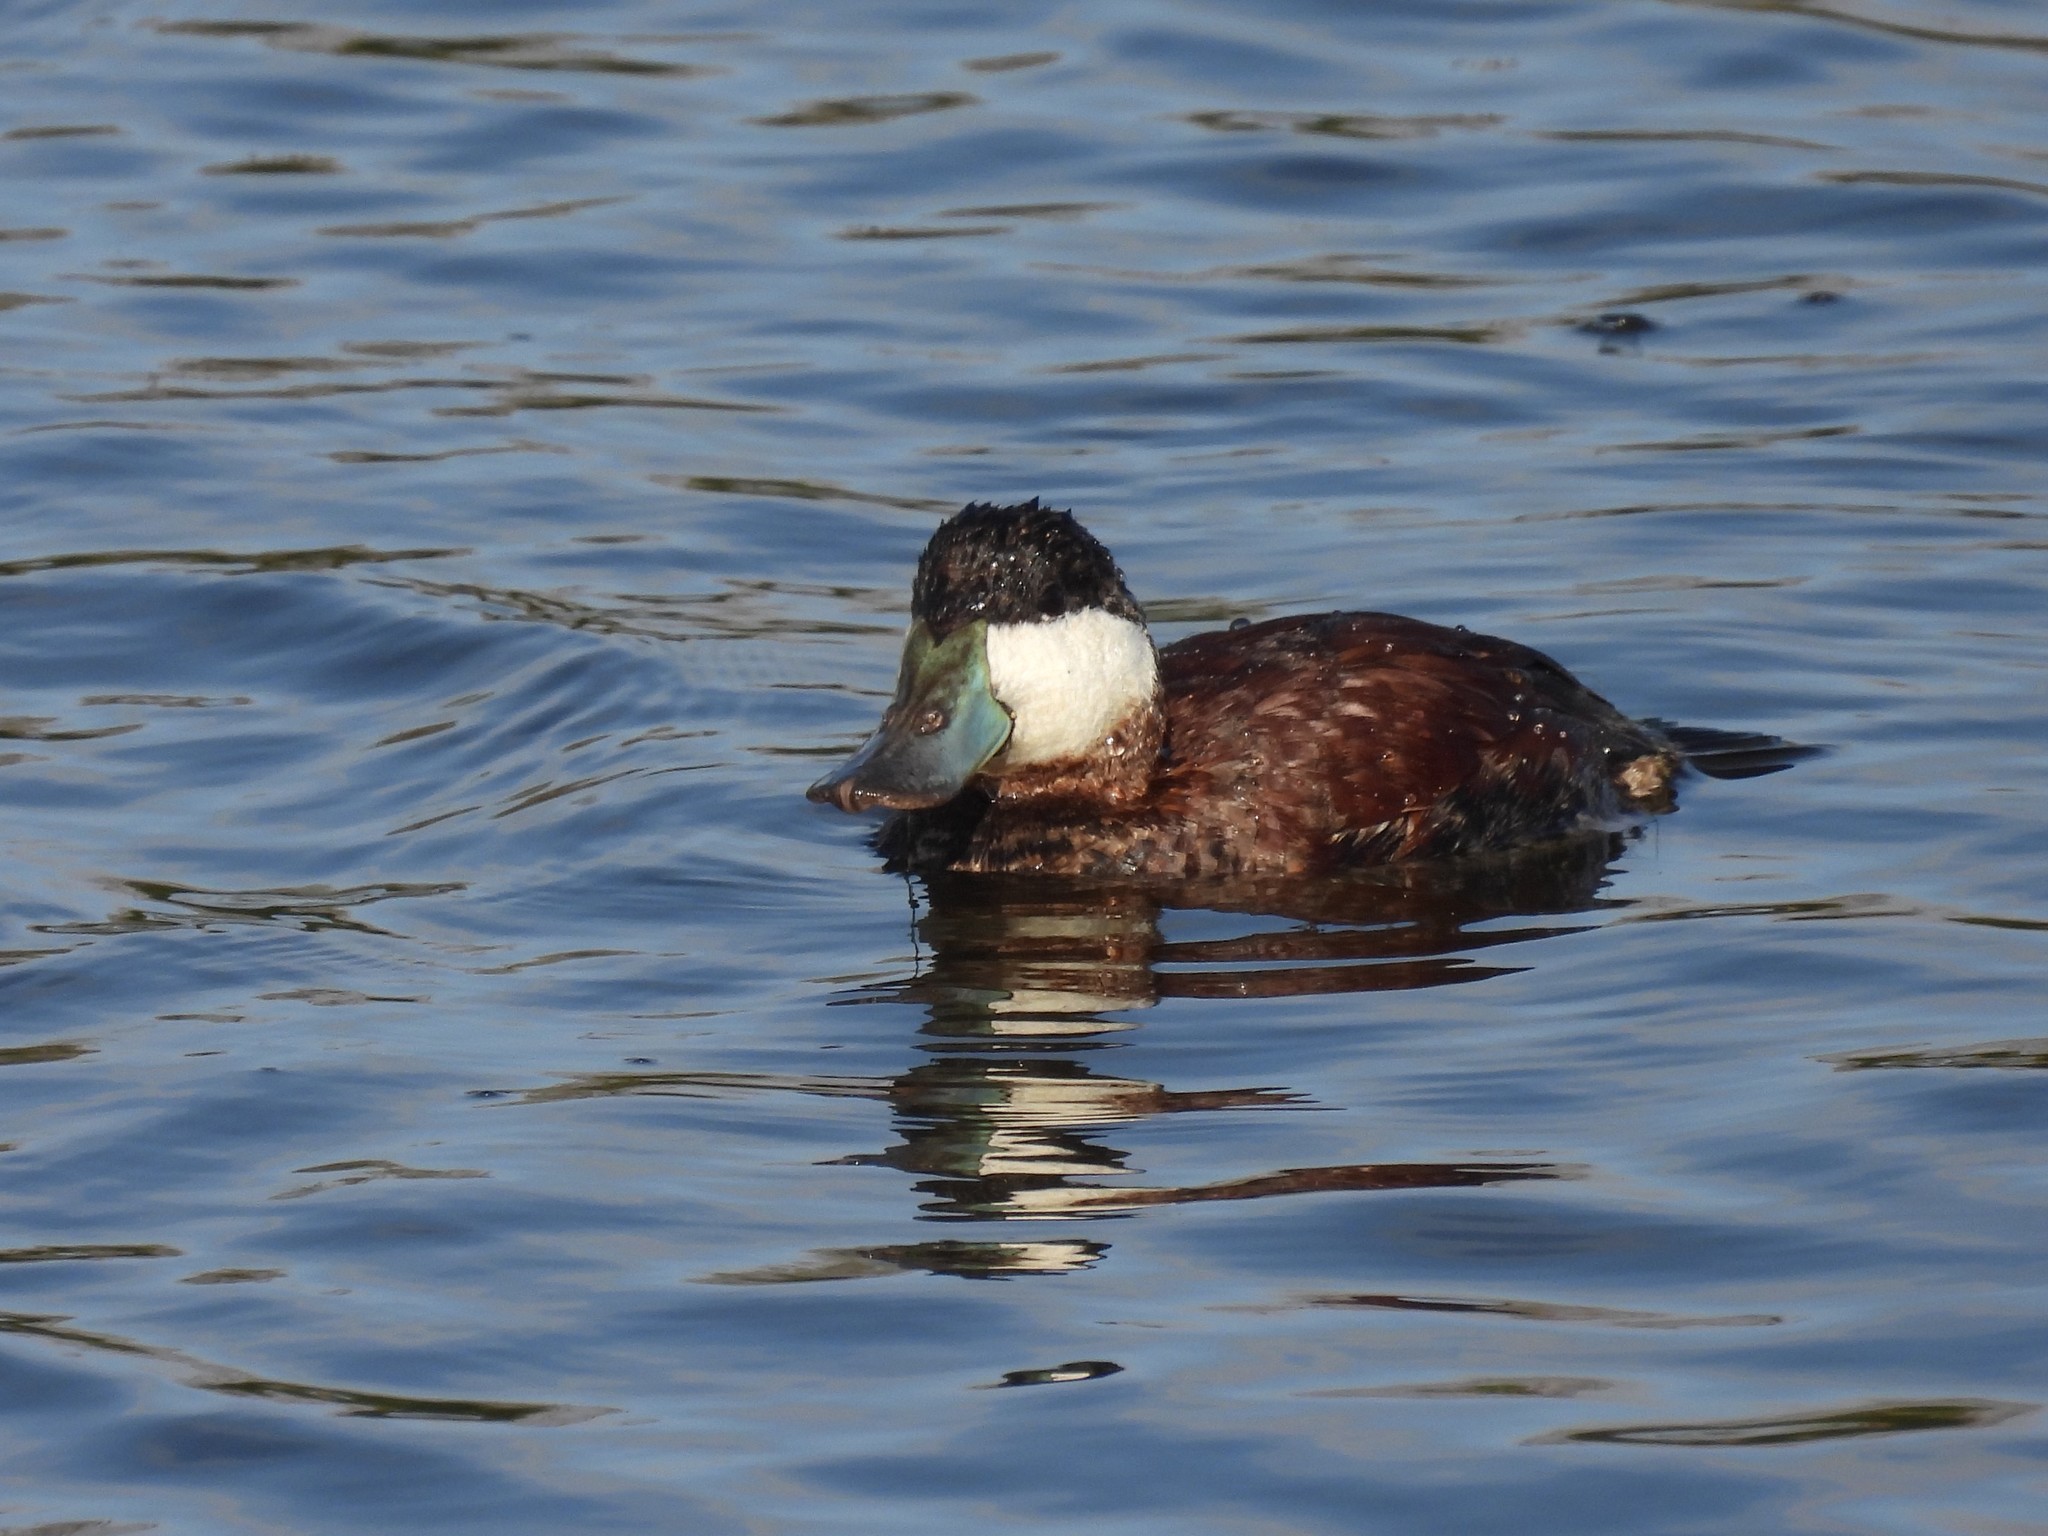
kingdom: Animalia
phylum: Chordata
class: Aves
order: Anseriformes
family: Anatidae
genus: Oxyura
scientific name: Oxyura jamaicensis
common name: Ruddy duck
